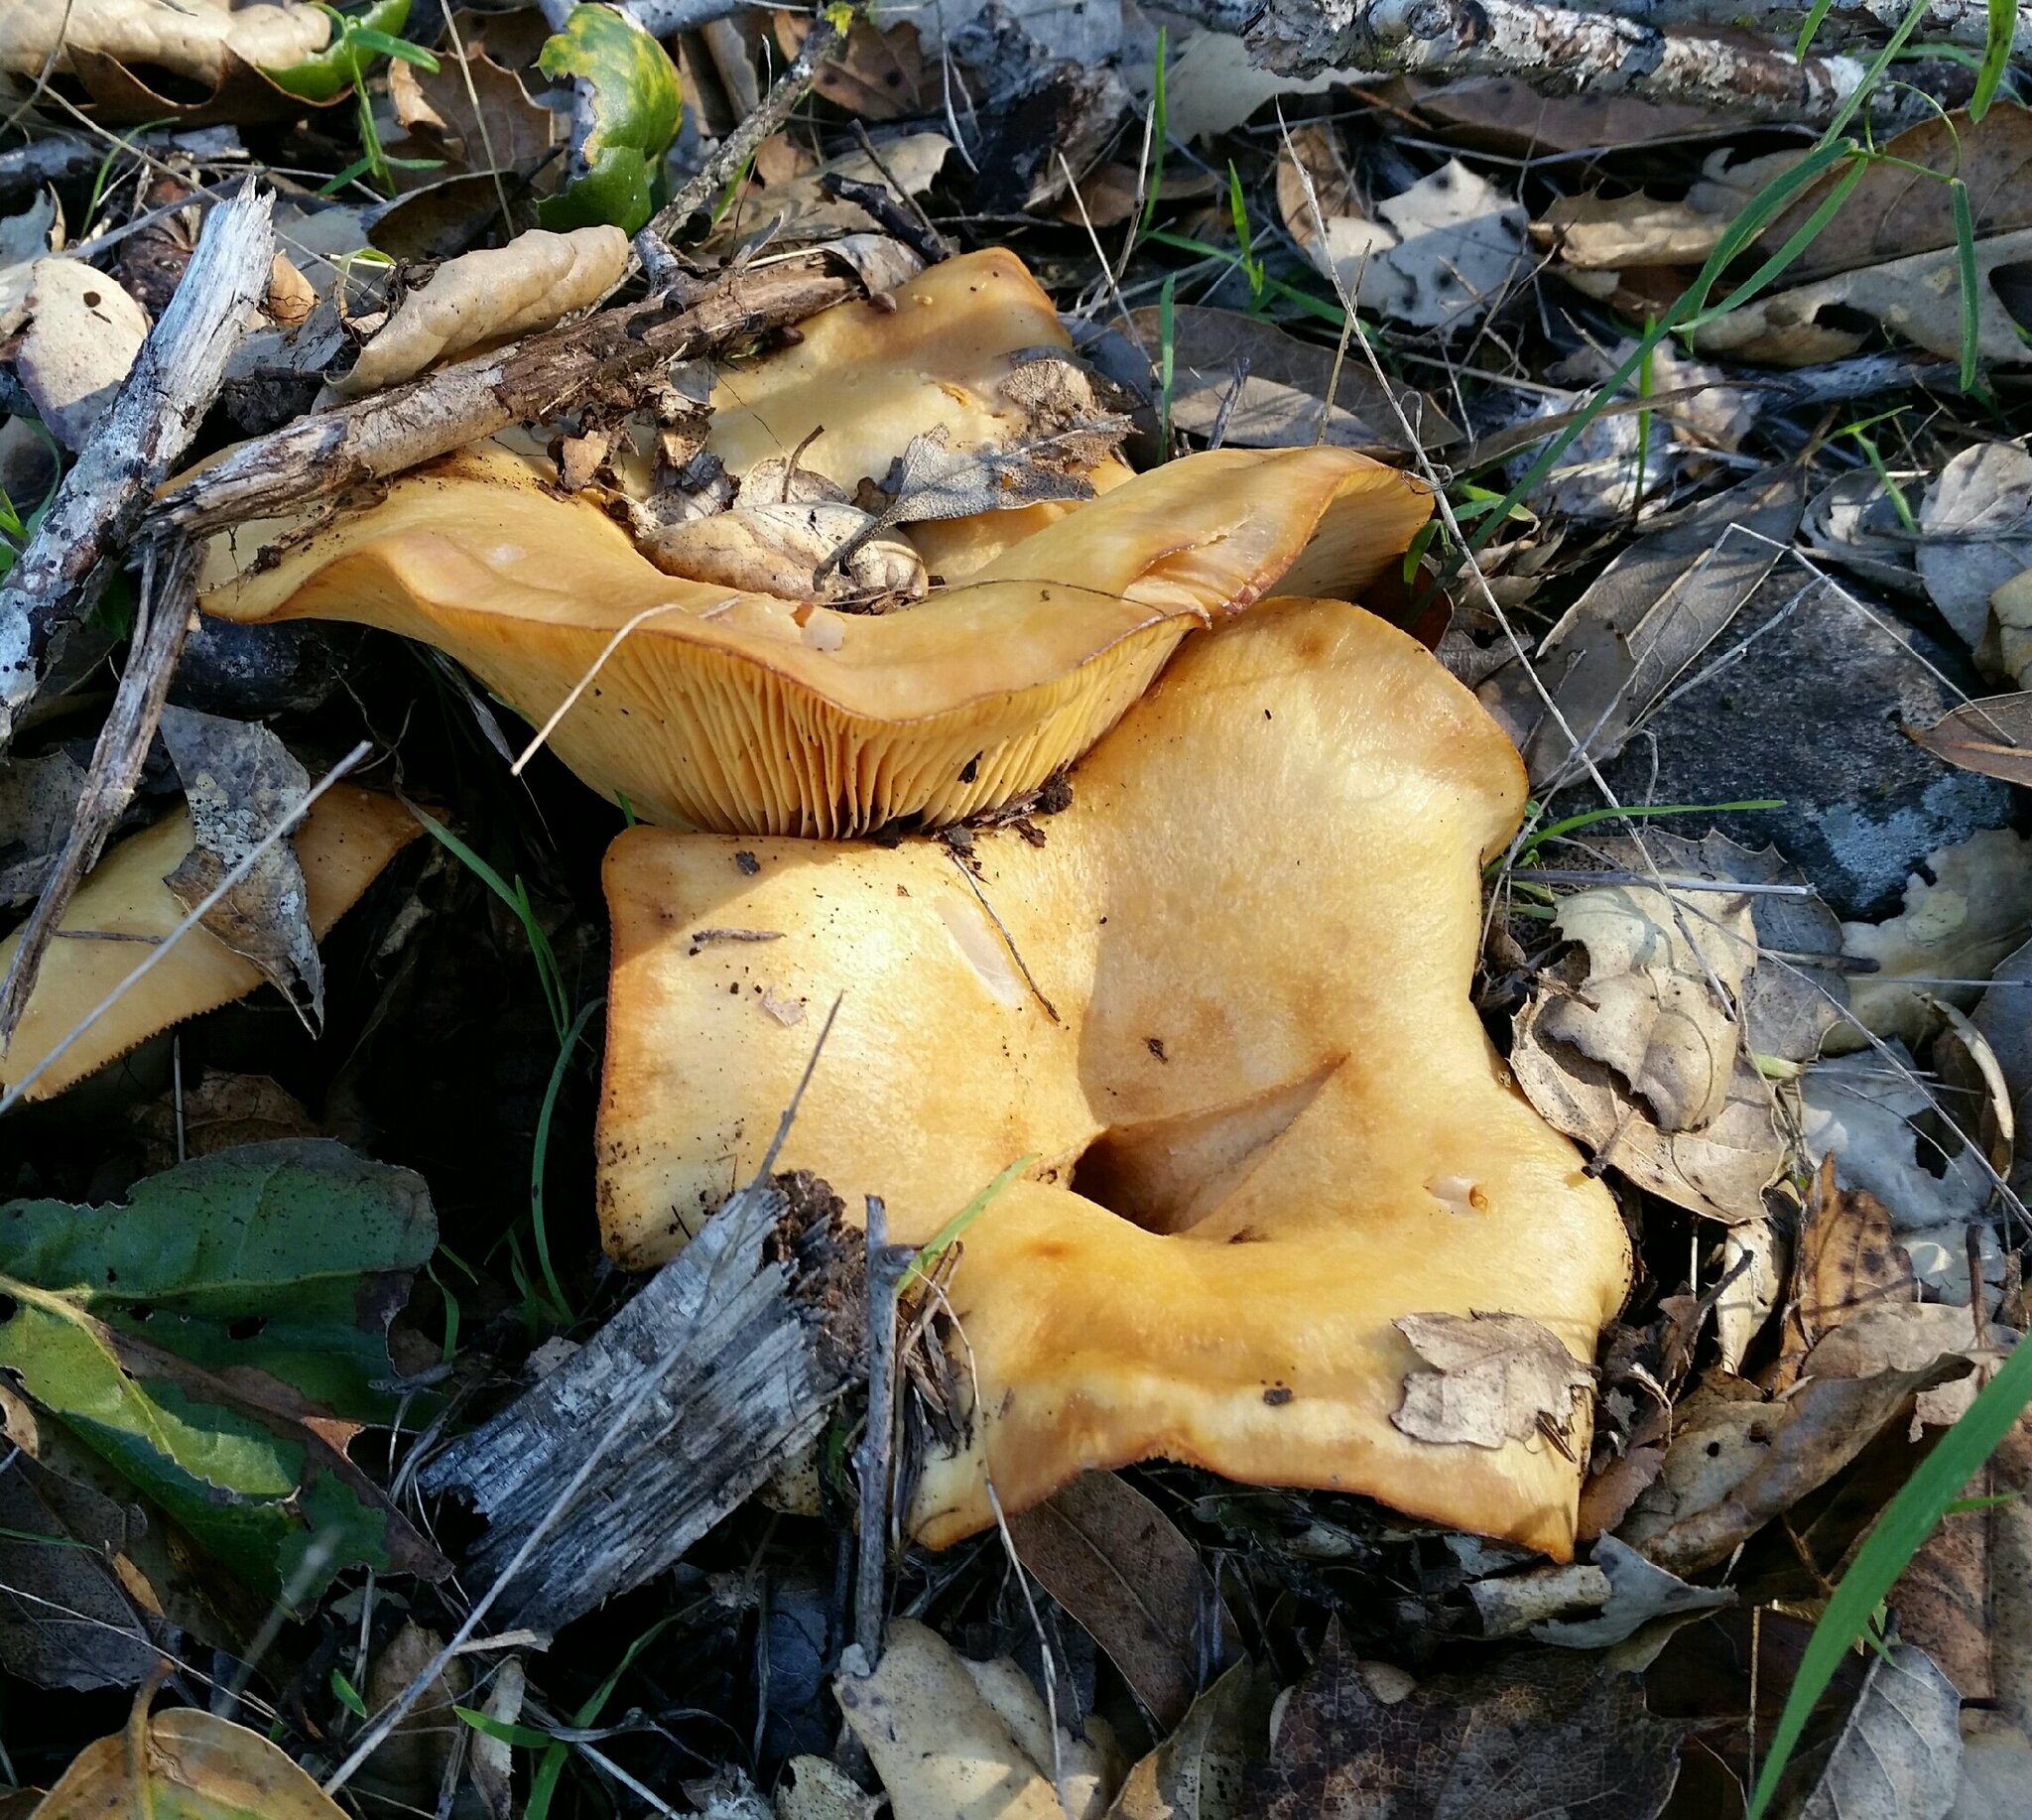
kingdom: Fungi
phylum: Basidiomycota
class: Agaricomycetes
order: Russulales
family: Russulaceae
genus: Lactarius
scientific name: Lactarius alnicola
